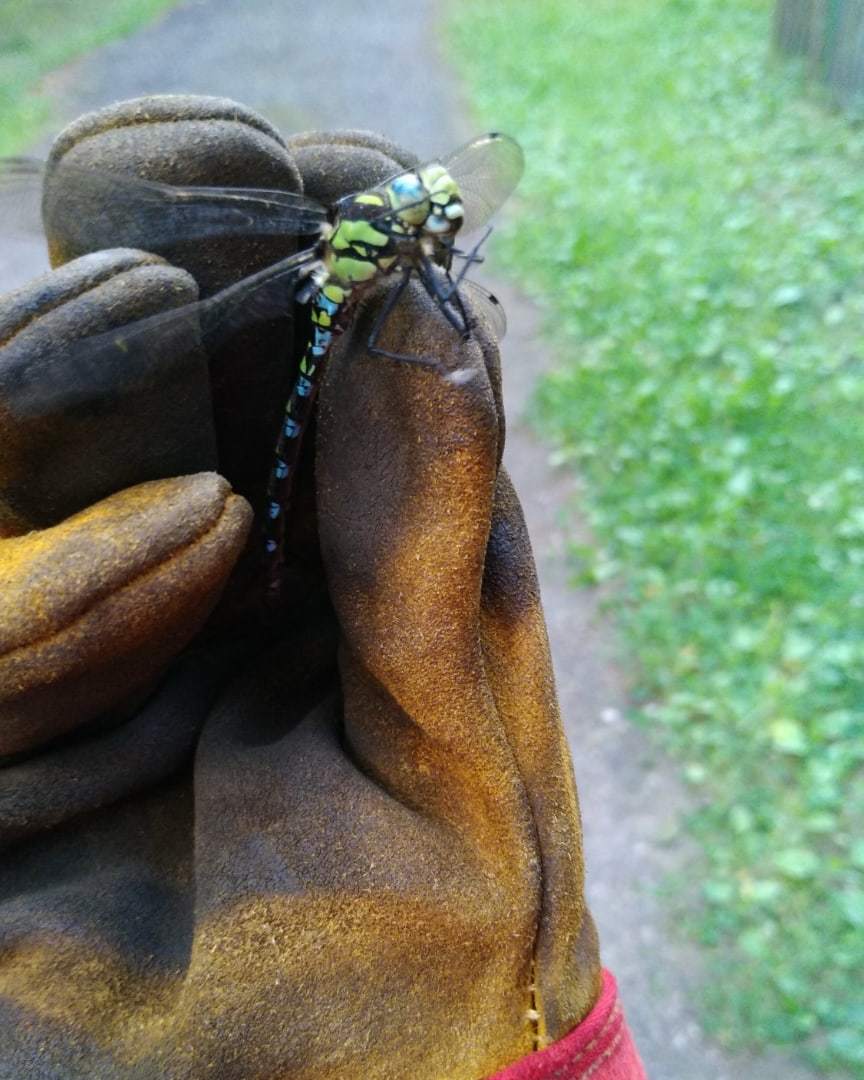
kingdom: Animalia
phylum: Arthropoda
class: Insecta
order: Odonata
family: Aeshnidae
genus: Aeshna
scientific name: Aeshna cyanea
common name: Southern hawker
